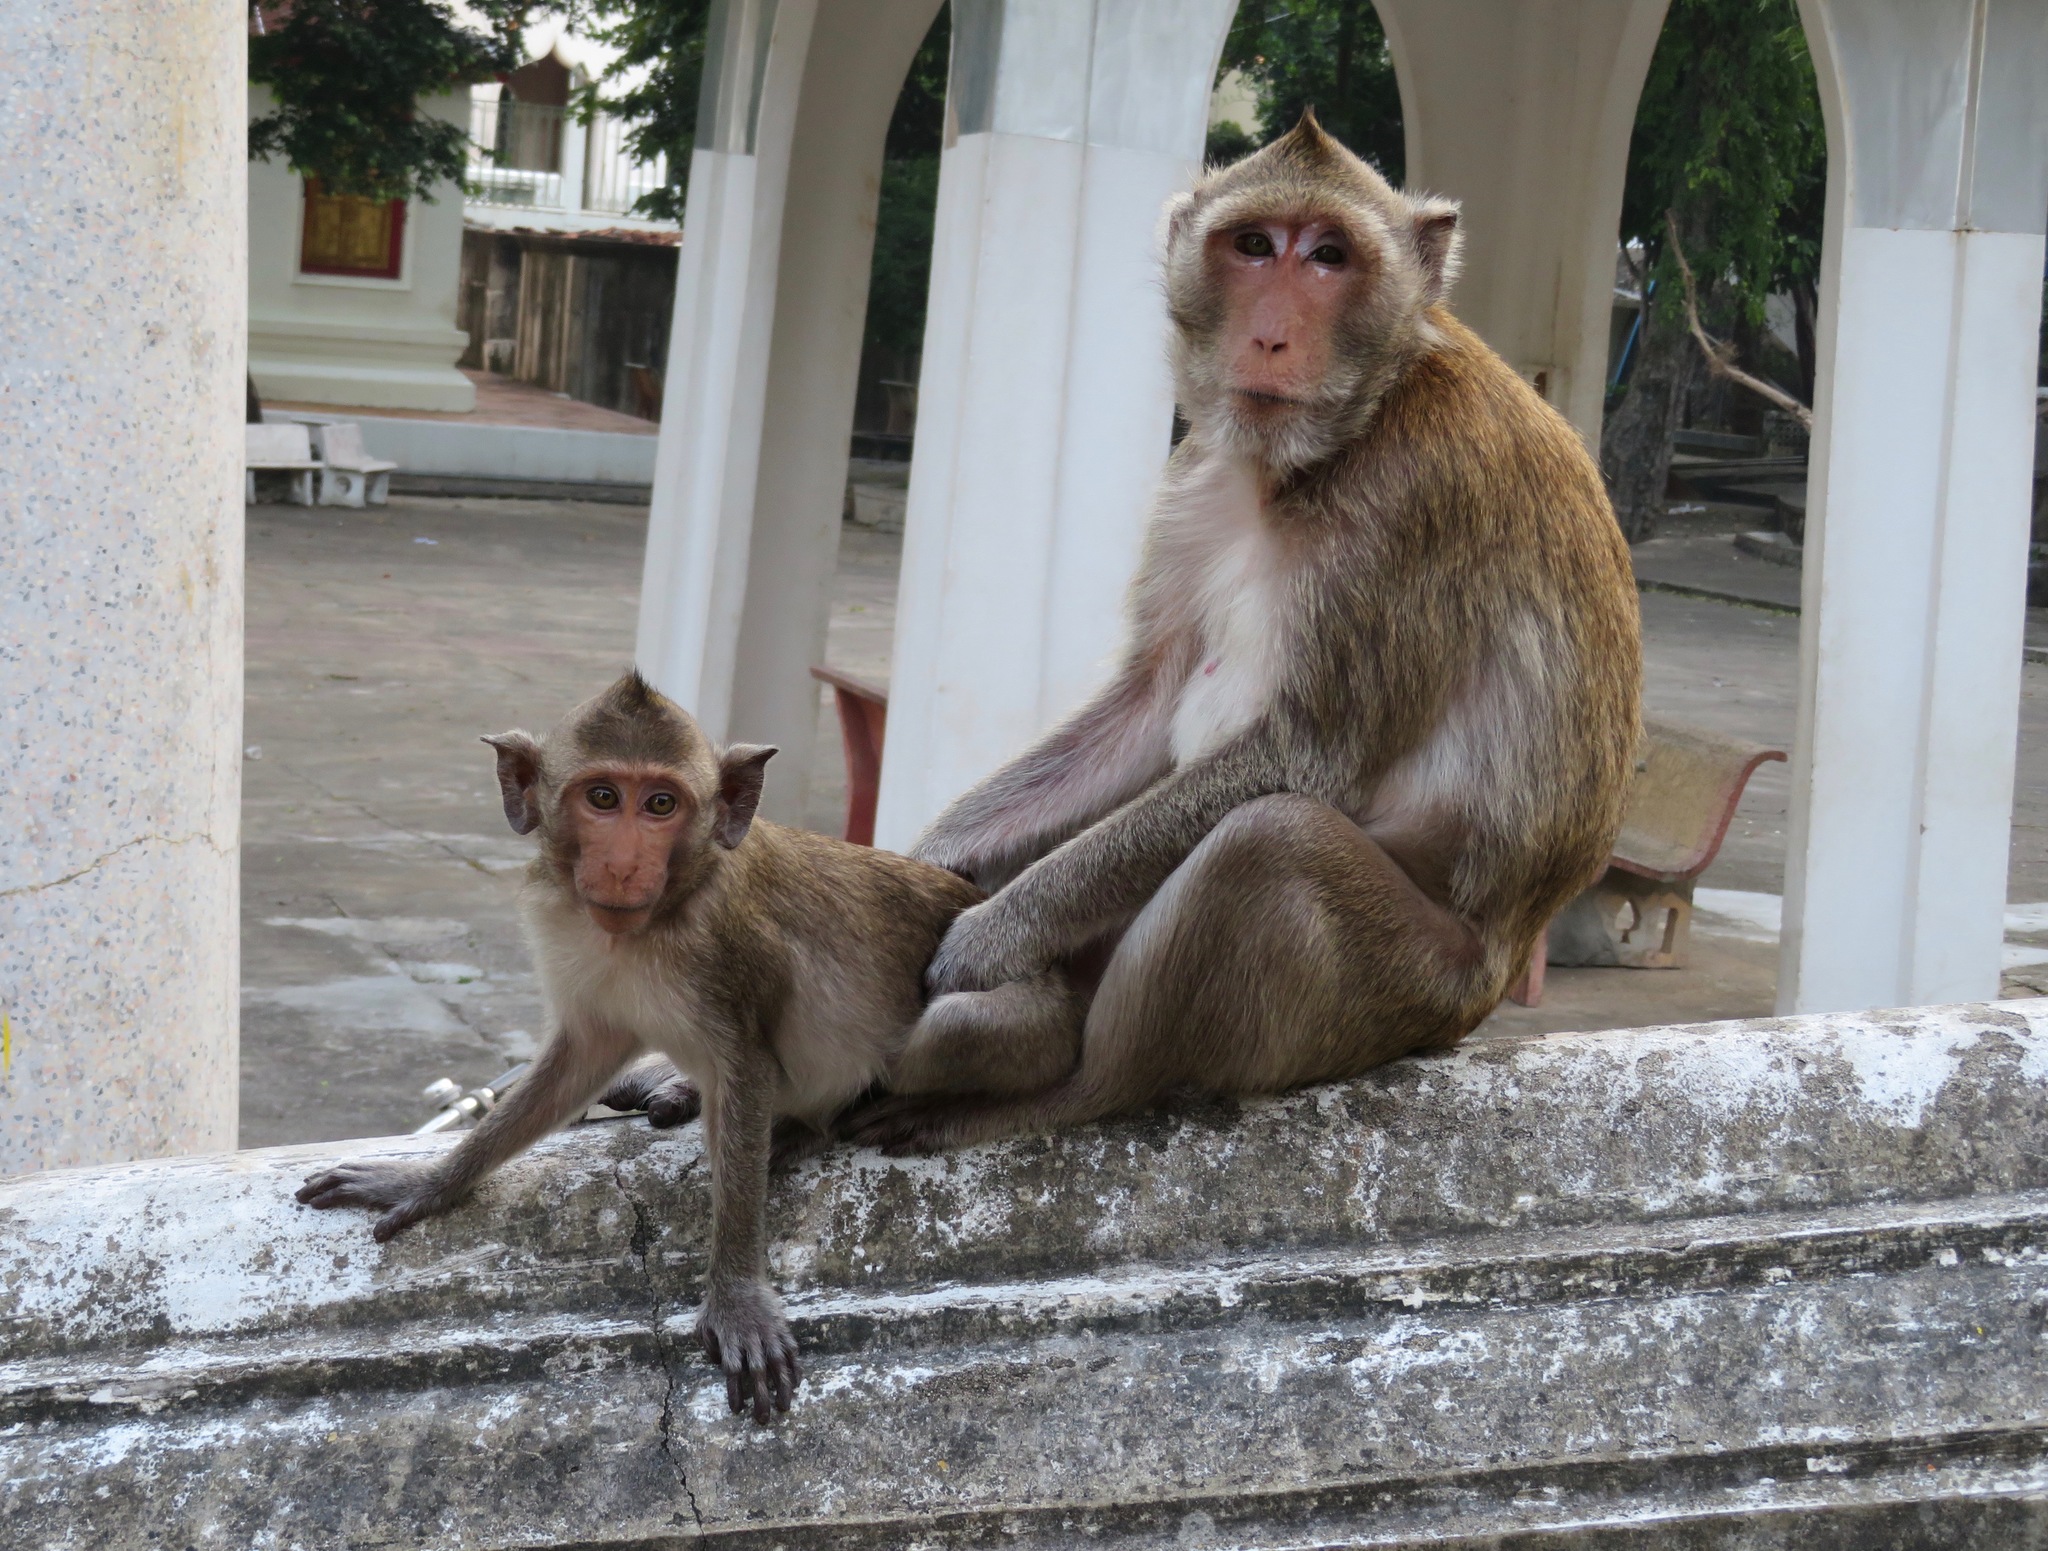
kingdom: Animalia
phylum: Chordata
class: Mammalia
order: Primates
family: Cercopithecidae
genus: Macaca
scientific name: Macaca fascicularis
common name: Crab-eating macaque
